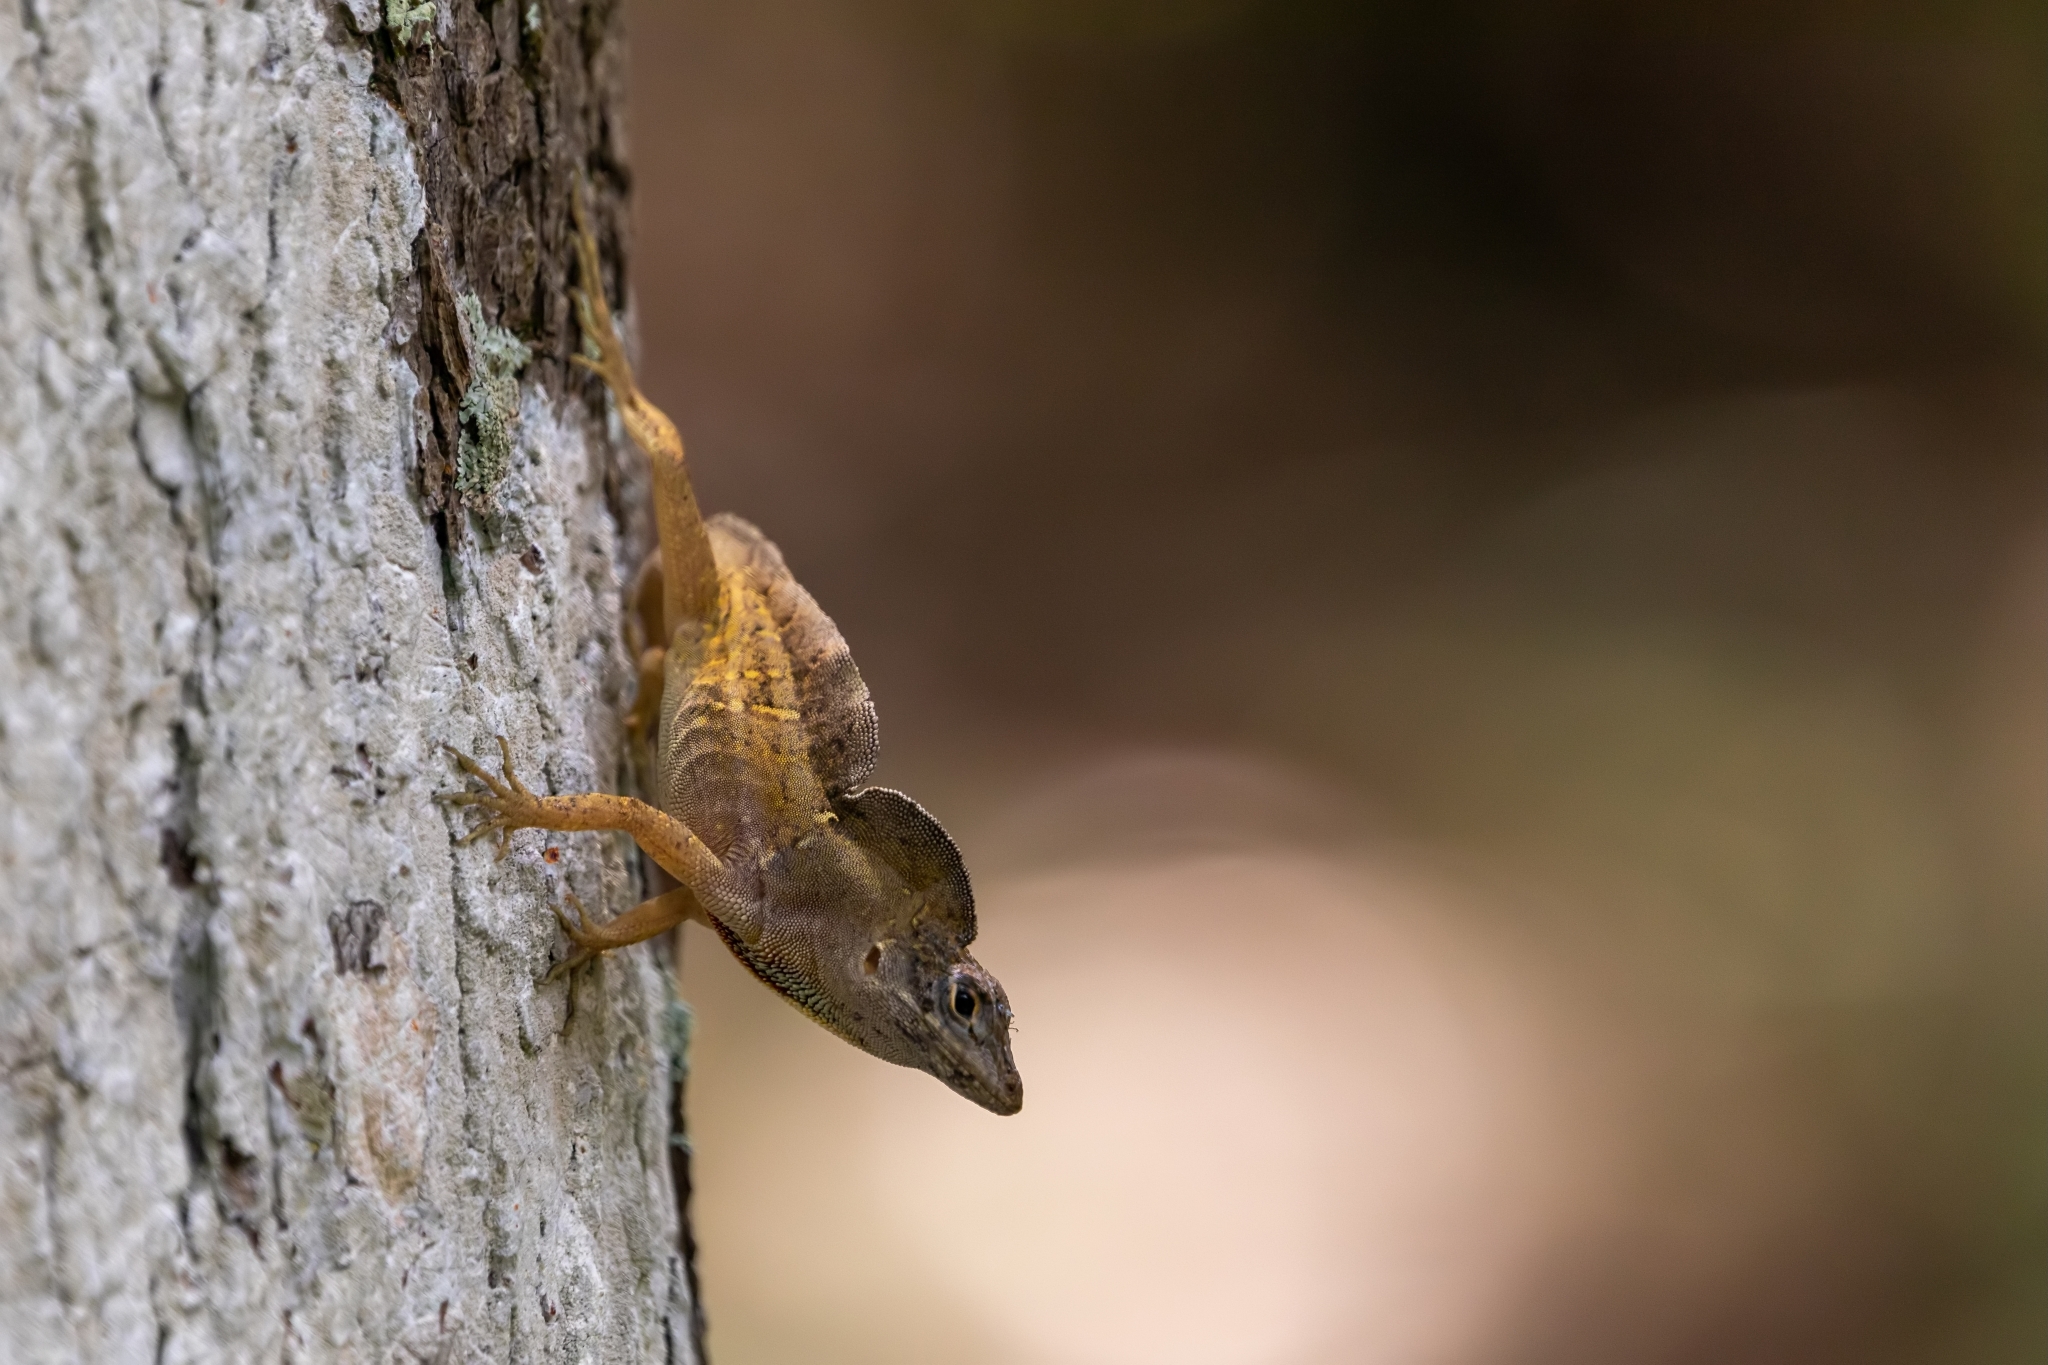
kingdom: Animalia
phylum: Chordata
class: Squamata
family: Dactyloidae
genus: Anolis
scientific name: Anolis sagrei
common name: Brown anole
